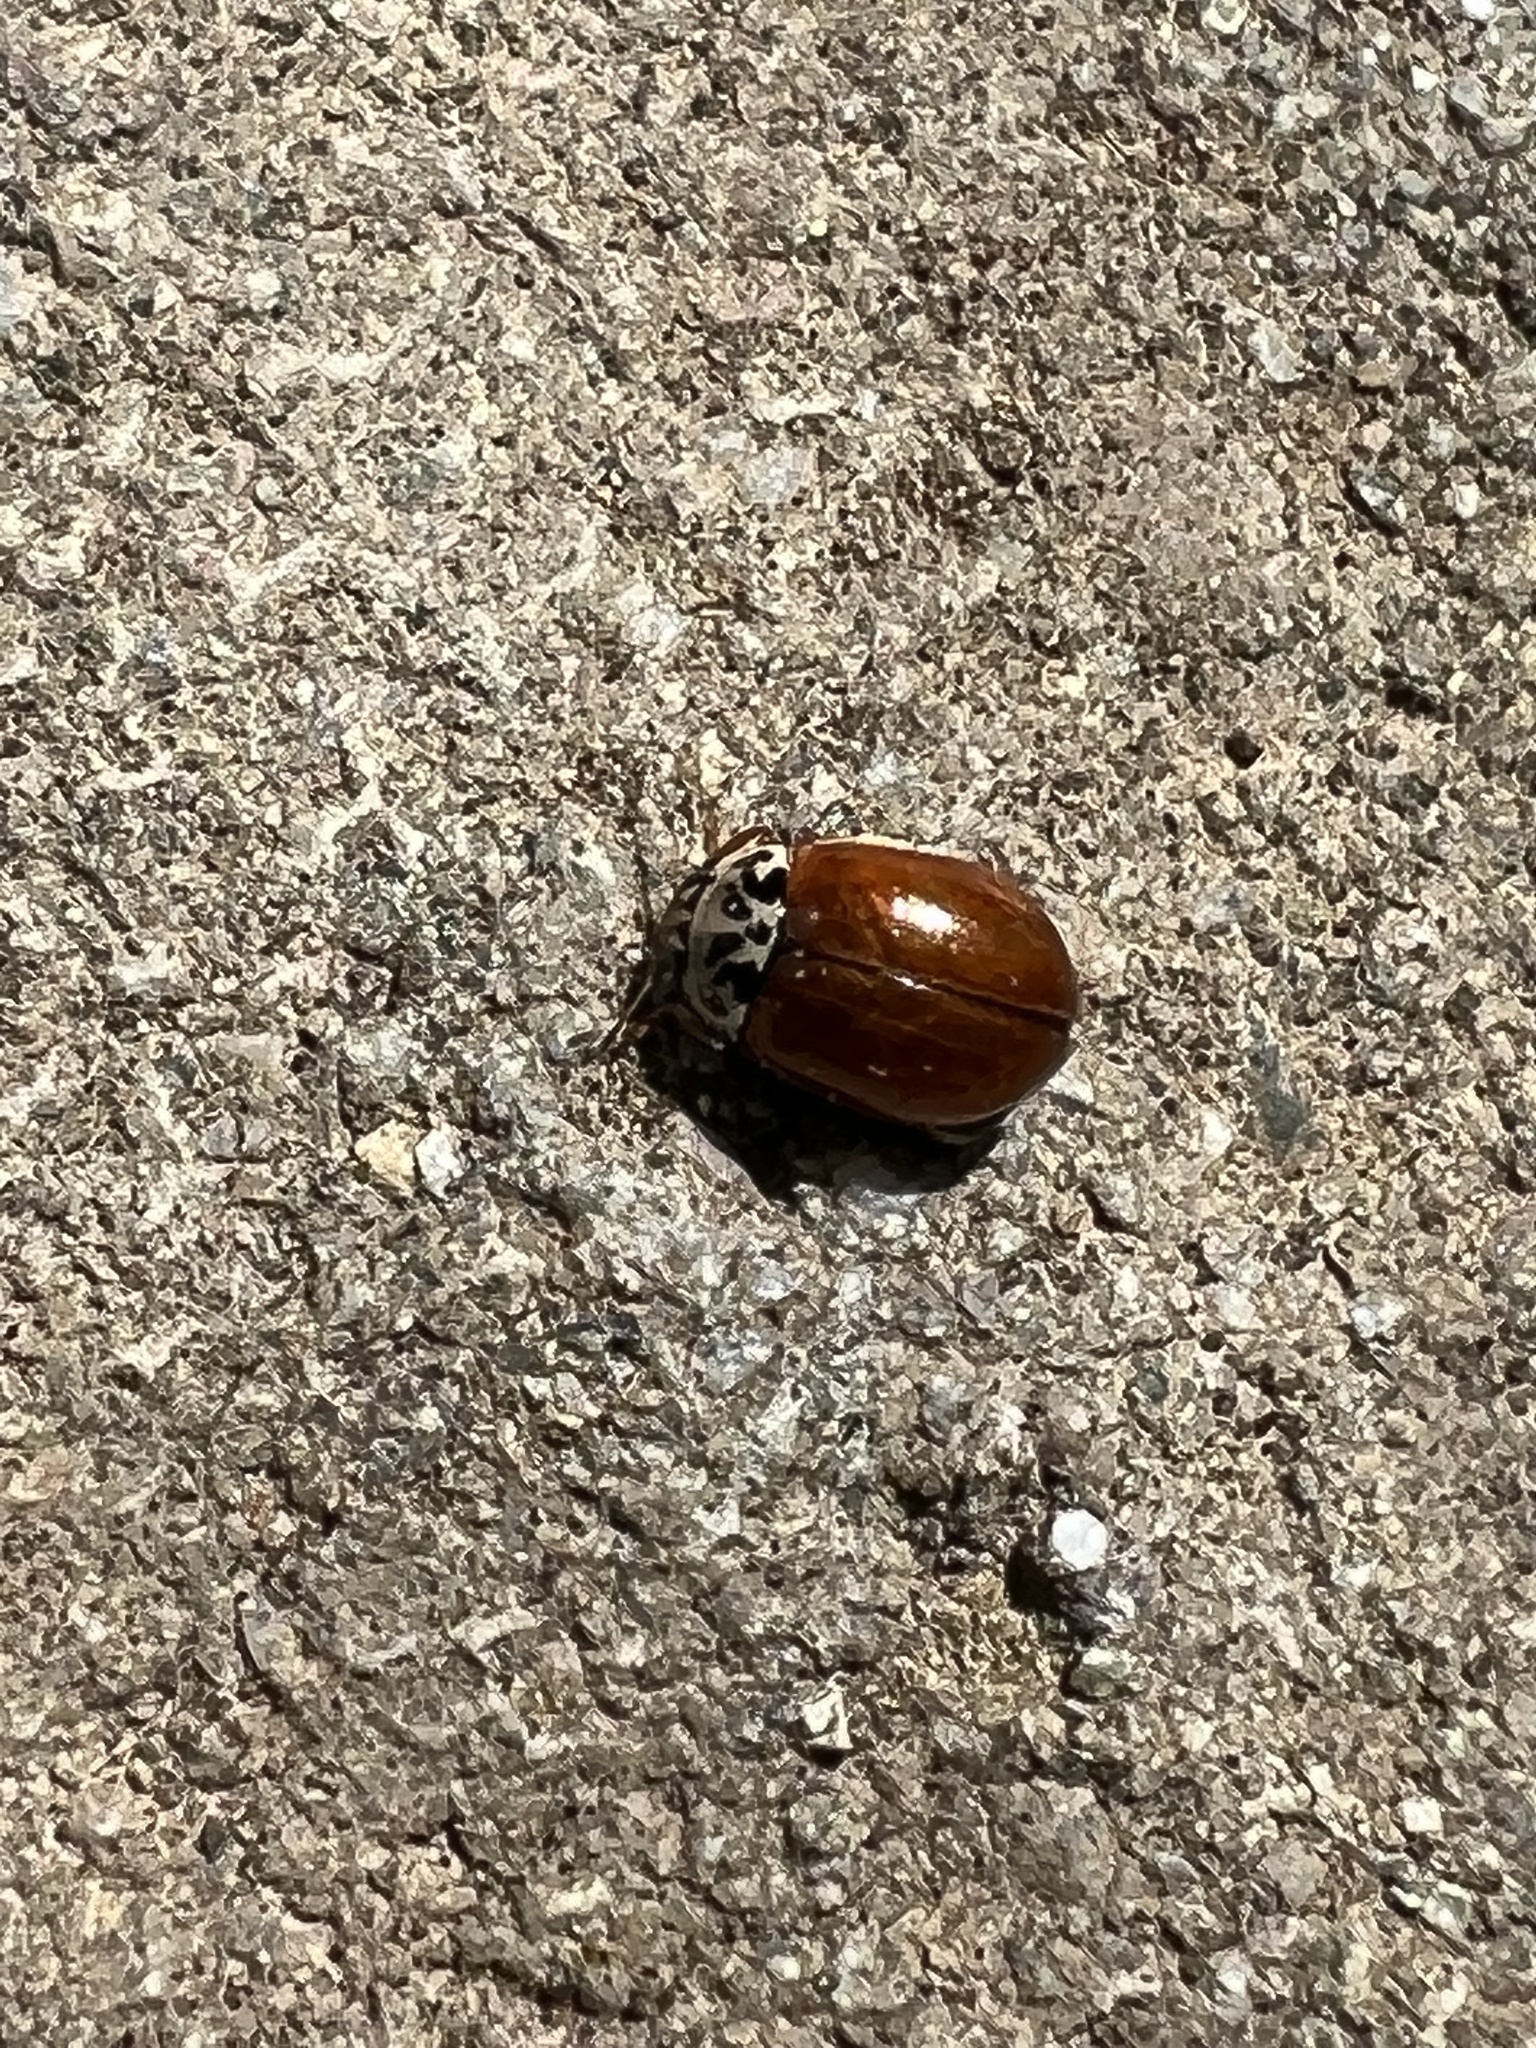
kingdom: Animalia
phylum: Arthropoda
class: Insecta
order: Coleoptera
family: Coccinellidae
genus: Mulsantina
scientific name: Mulsantina picta
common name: Painted ladybird
